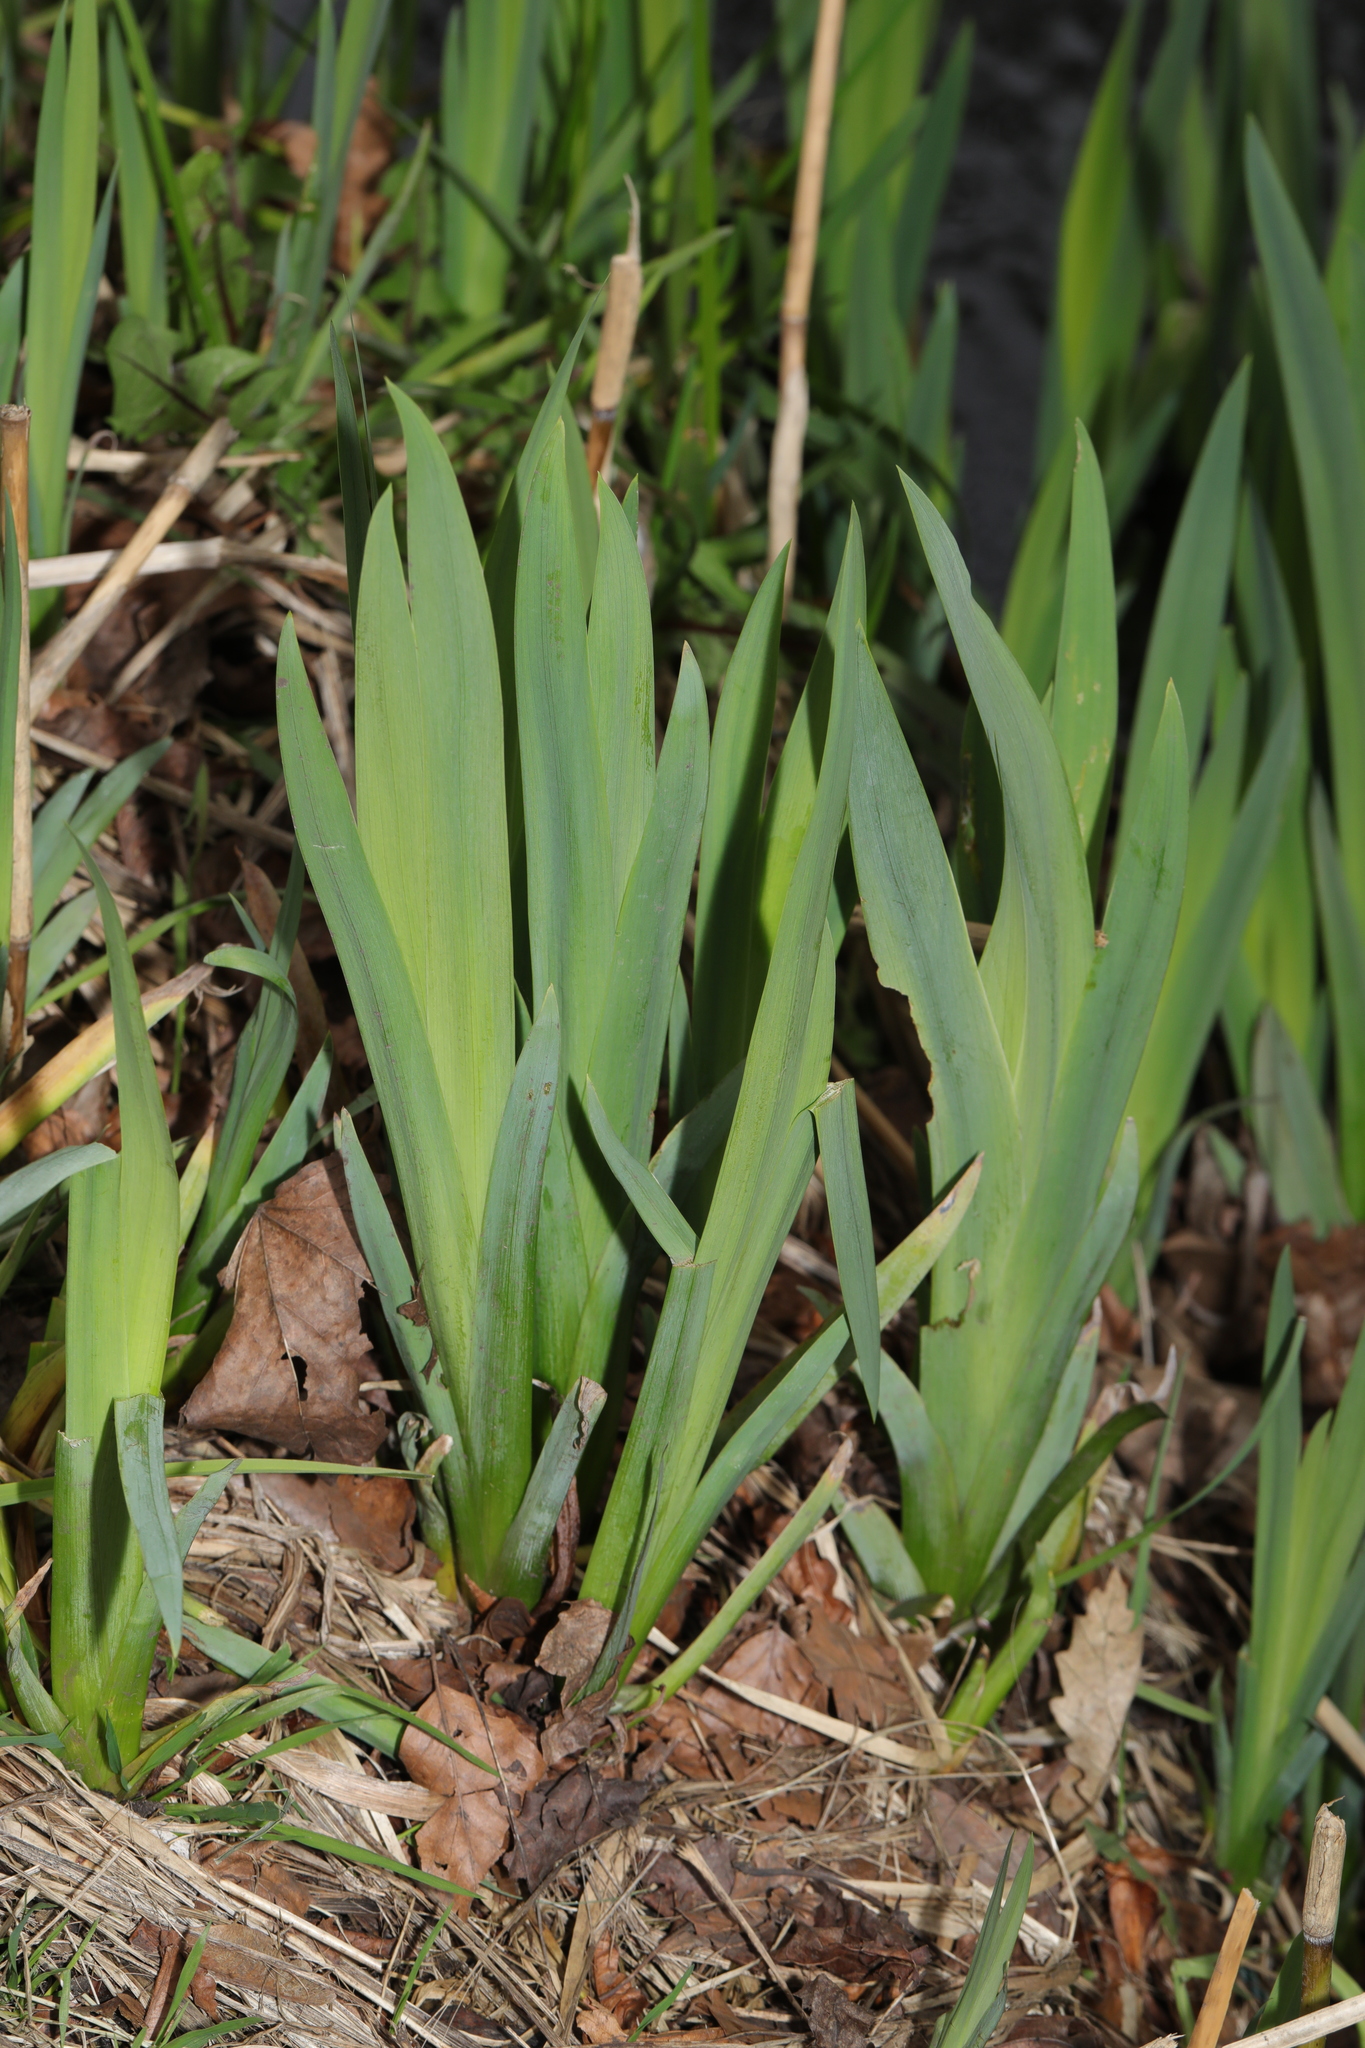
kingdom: Plantae
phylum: Tracheophyta
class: Liliopsida
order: Asparagales
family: Iridaceae
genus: Iris
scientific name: Iris pseudacorus
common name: Yellow flag
